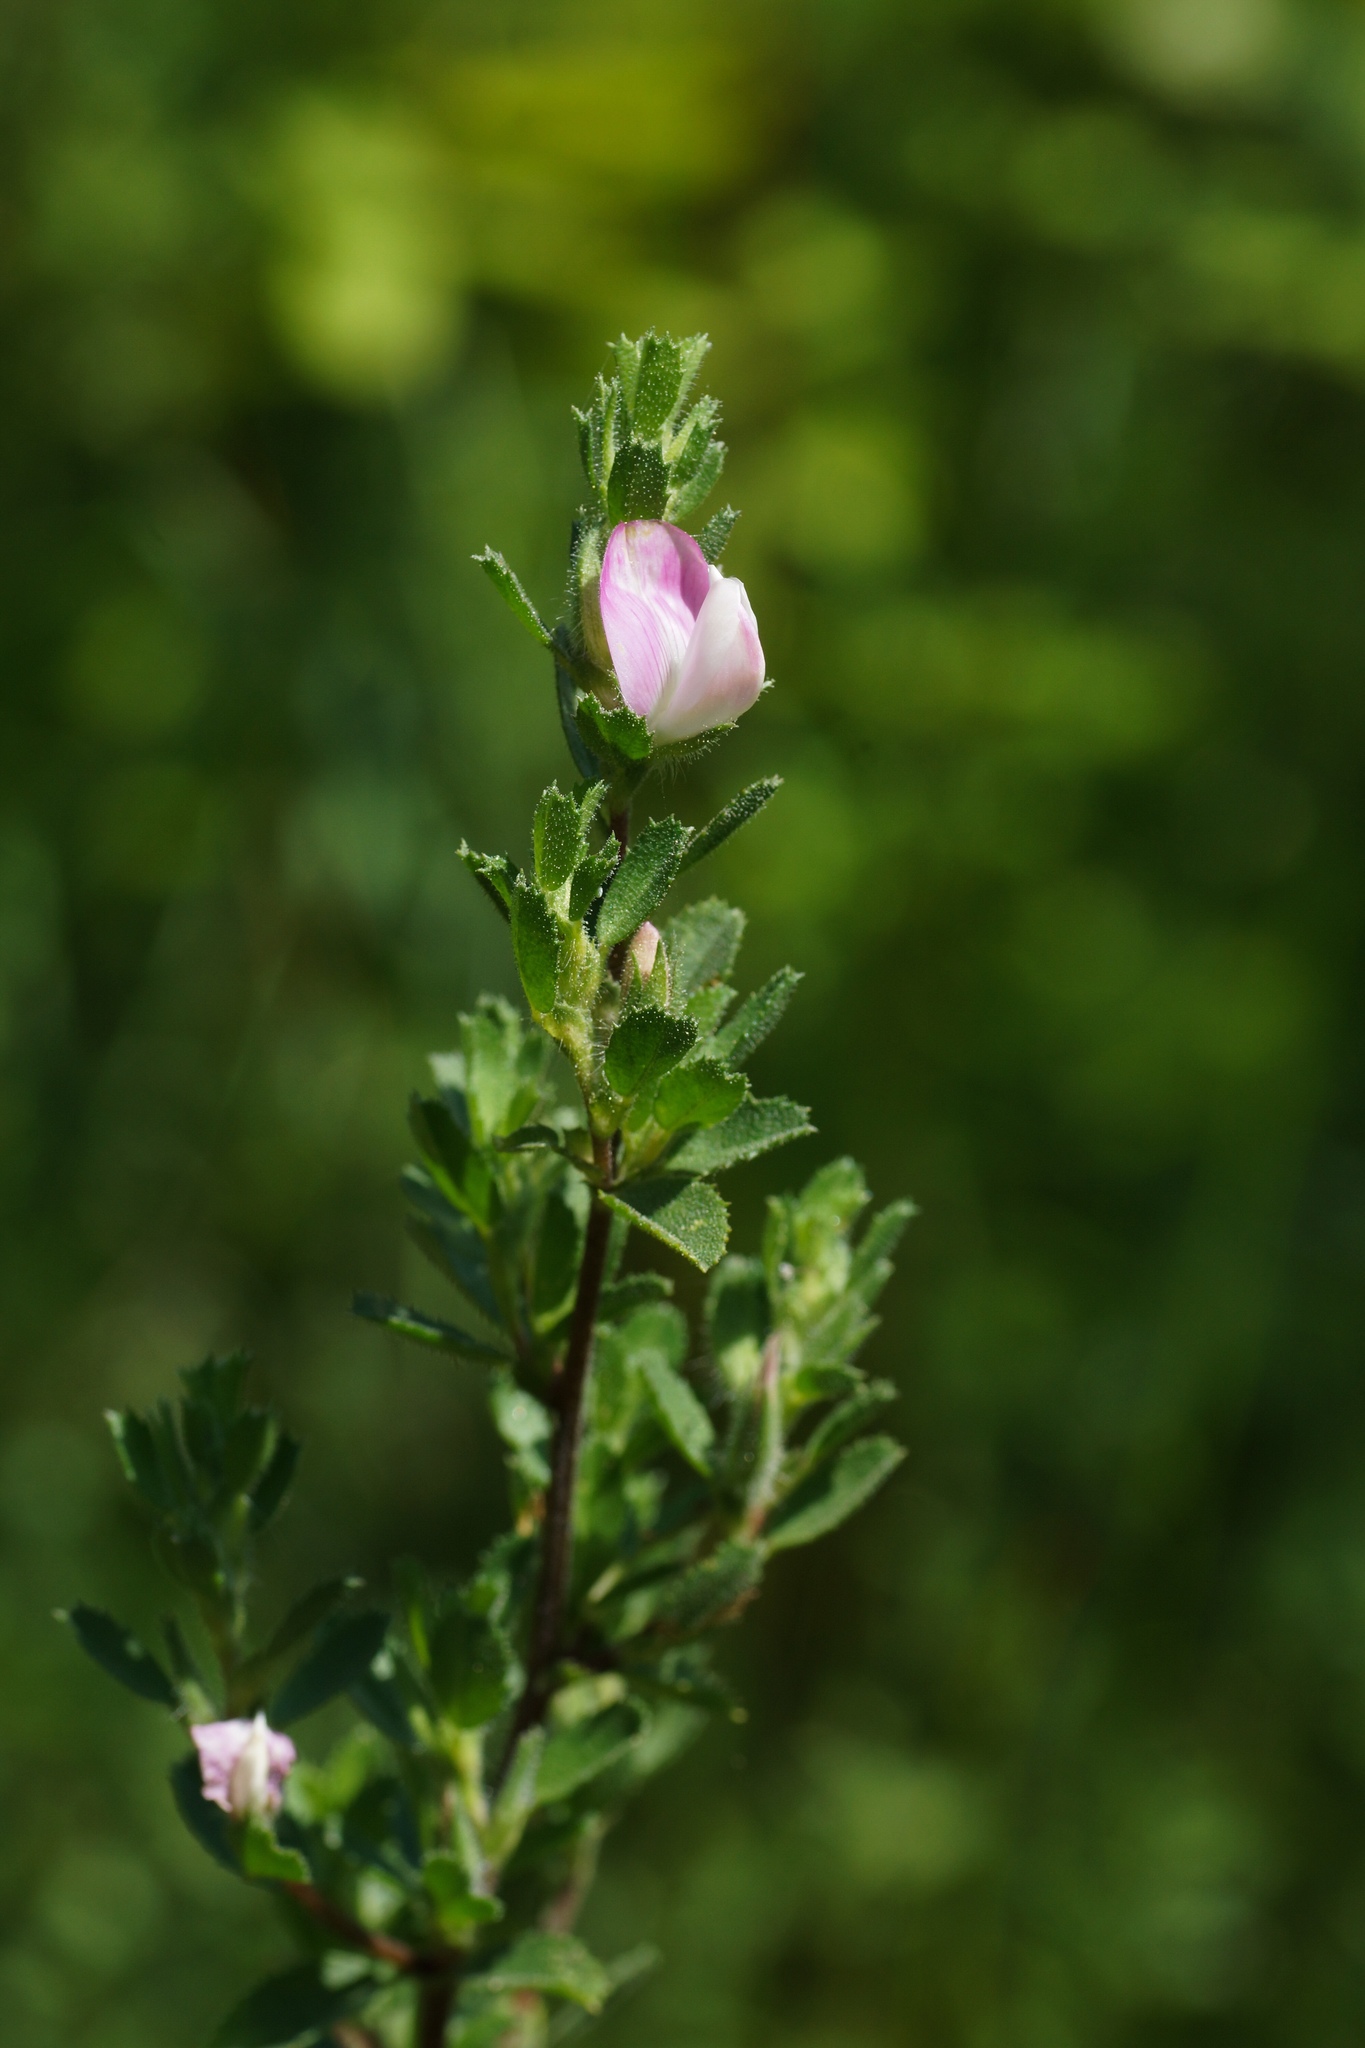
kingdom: Plantae
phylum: Tracheophyta
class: Magnoliopsida
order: Fabales
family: Fabaceae
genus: Ononis
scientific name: Ononis spinosa
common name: Spiny restharrow
